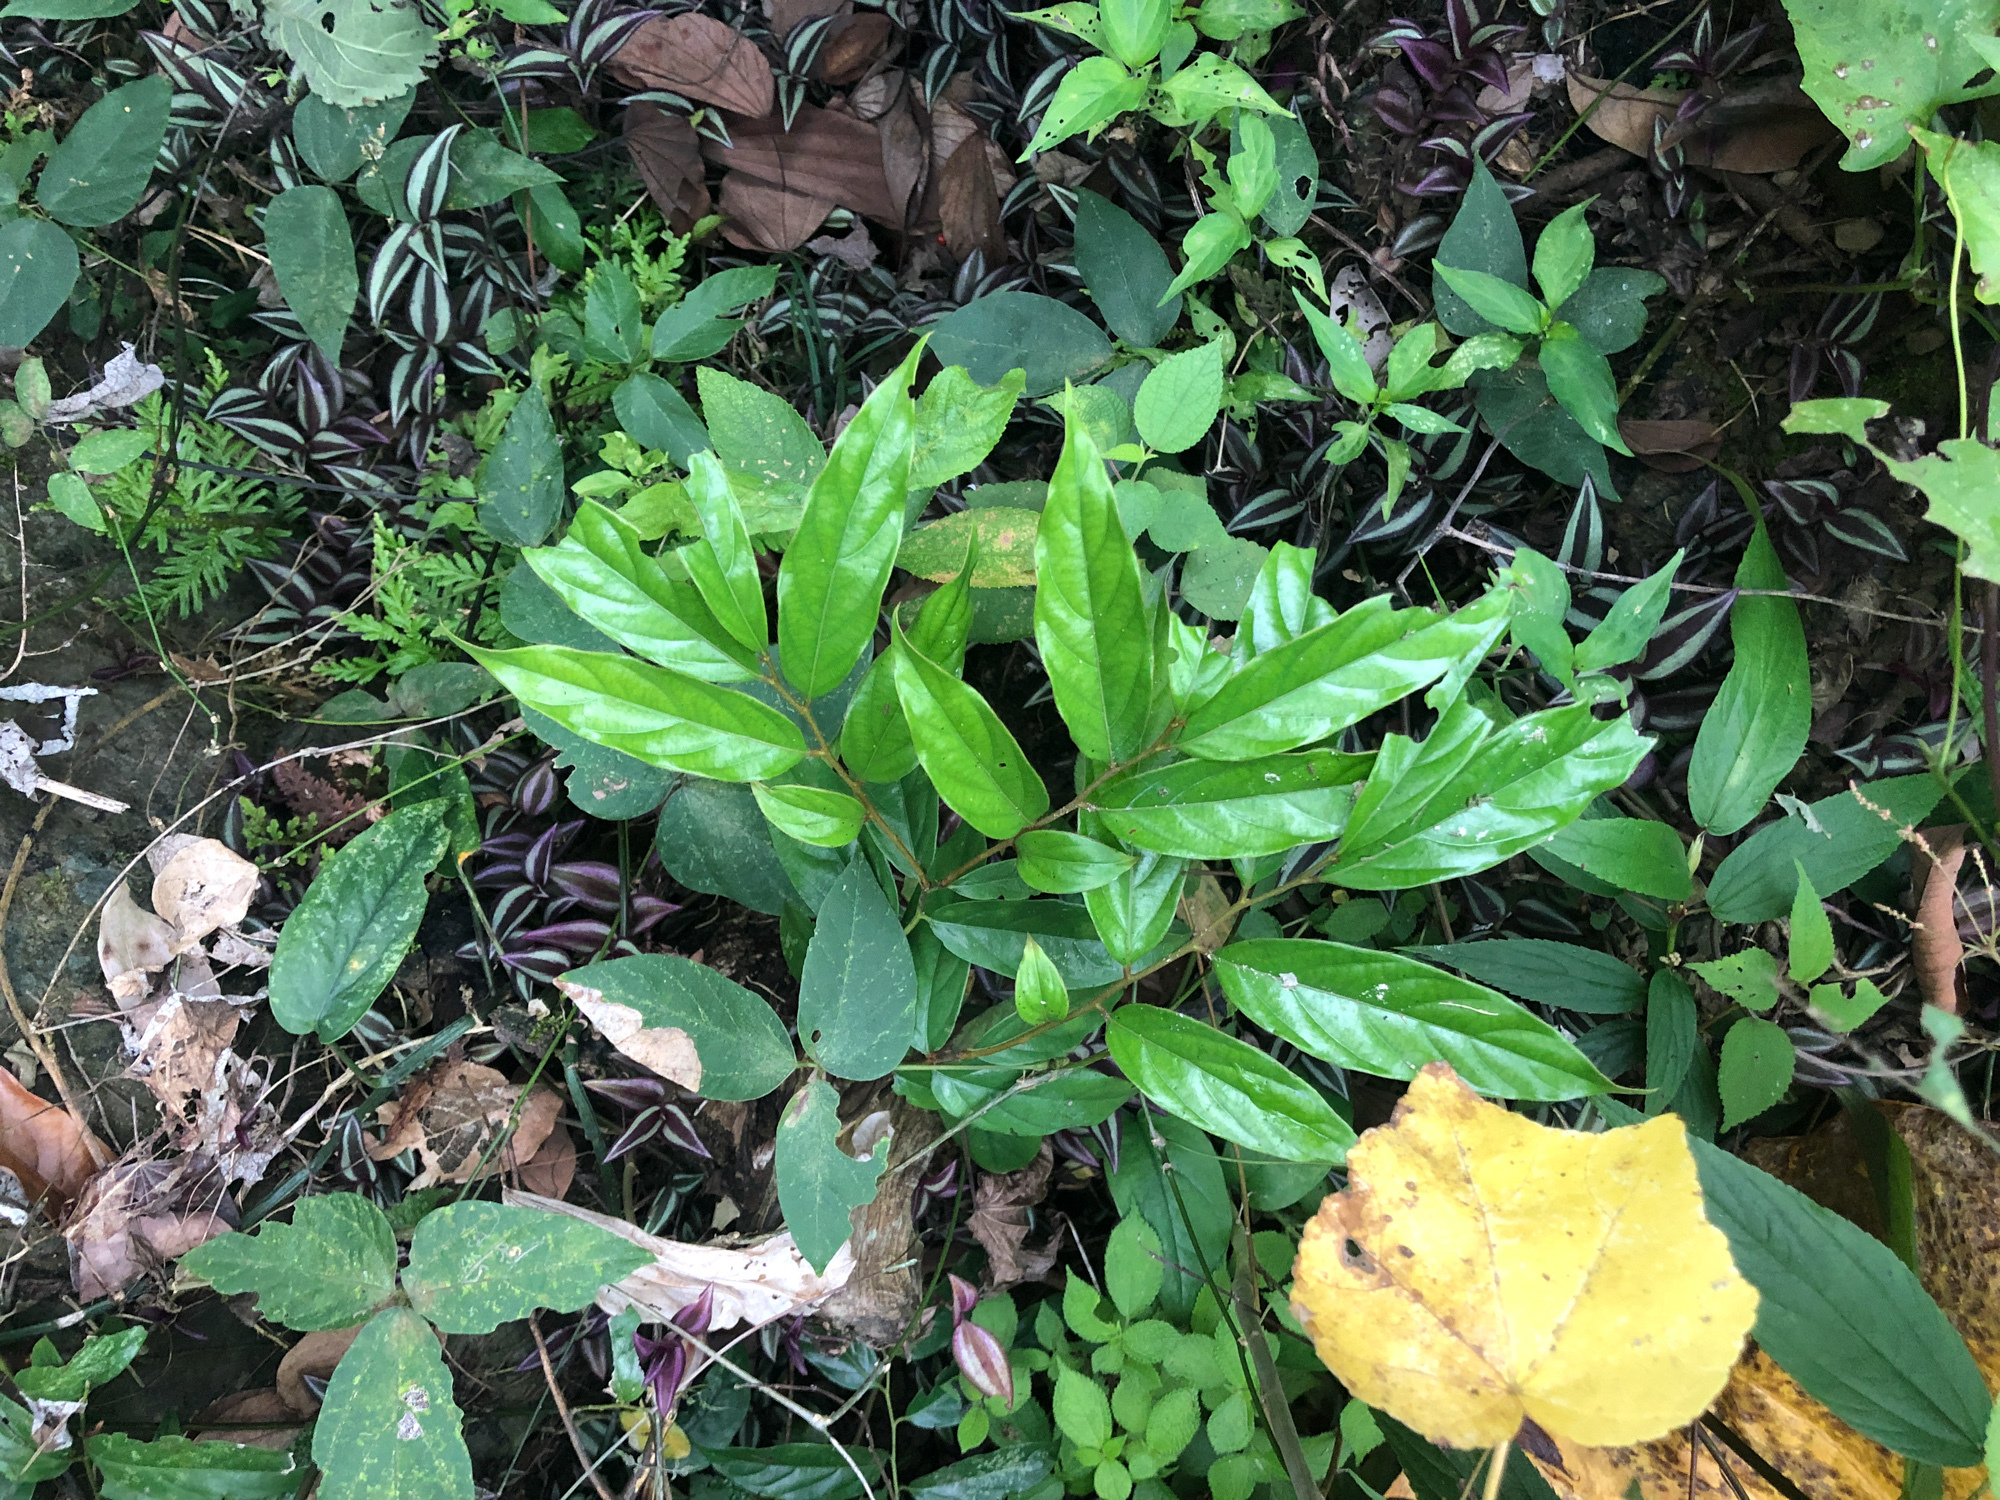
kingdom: Plantae
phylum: Tracheophyta
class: Magnoliopsida
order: Ericales
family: Ebenaceae
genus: Diospyros
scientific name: Diospyros eriantha
